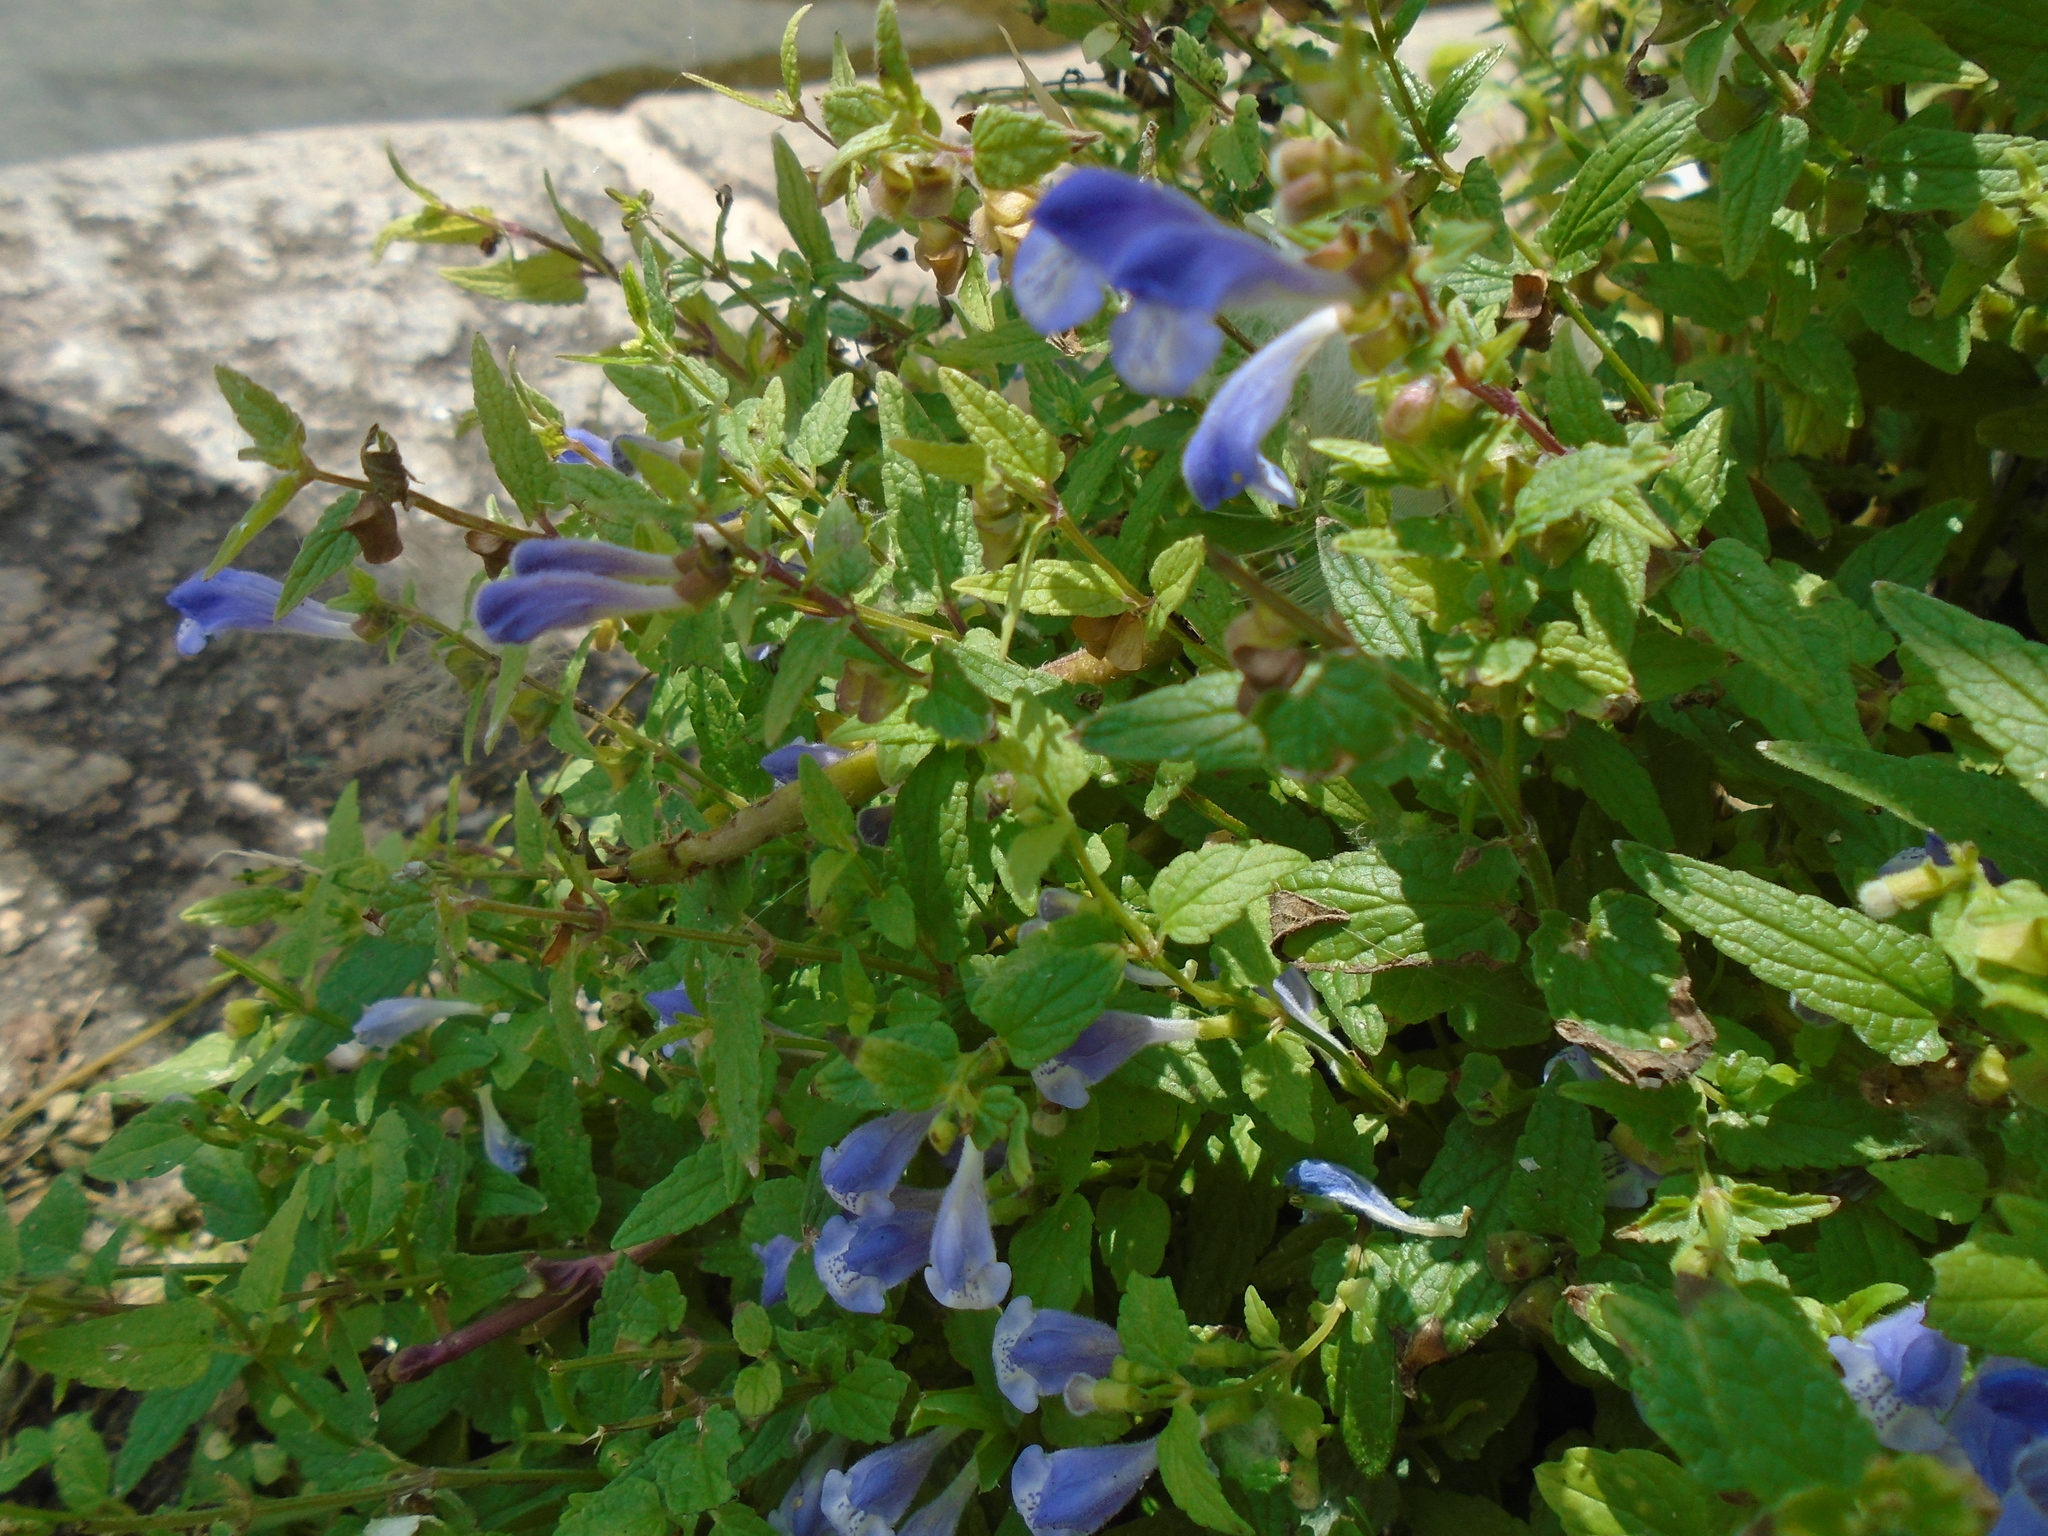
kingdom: Plantae
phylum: Tracheophyta
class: Magnoliopsida
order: Lamiales
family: Lamiaceae
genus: Scutellaria
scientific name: Scutellaria galericulata
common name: Skullcap
